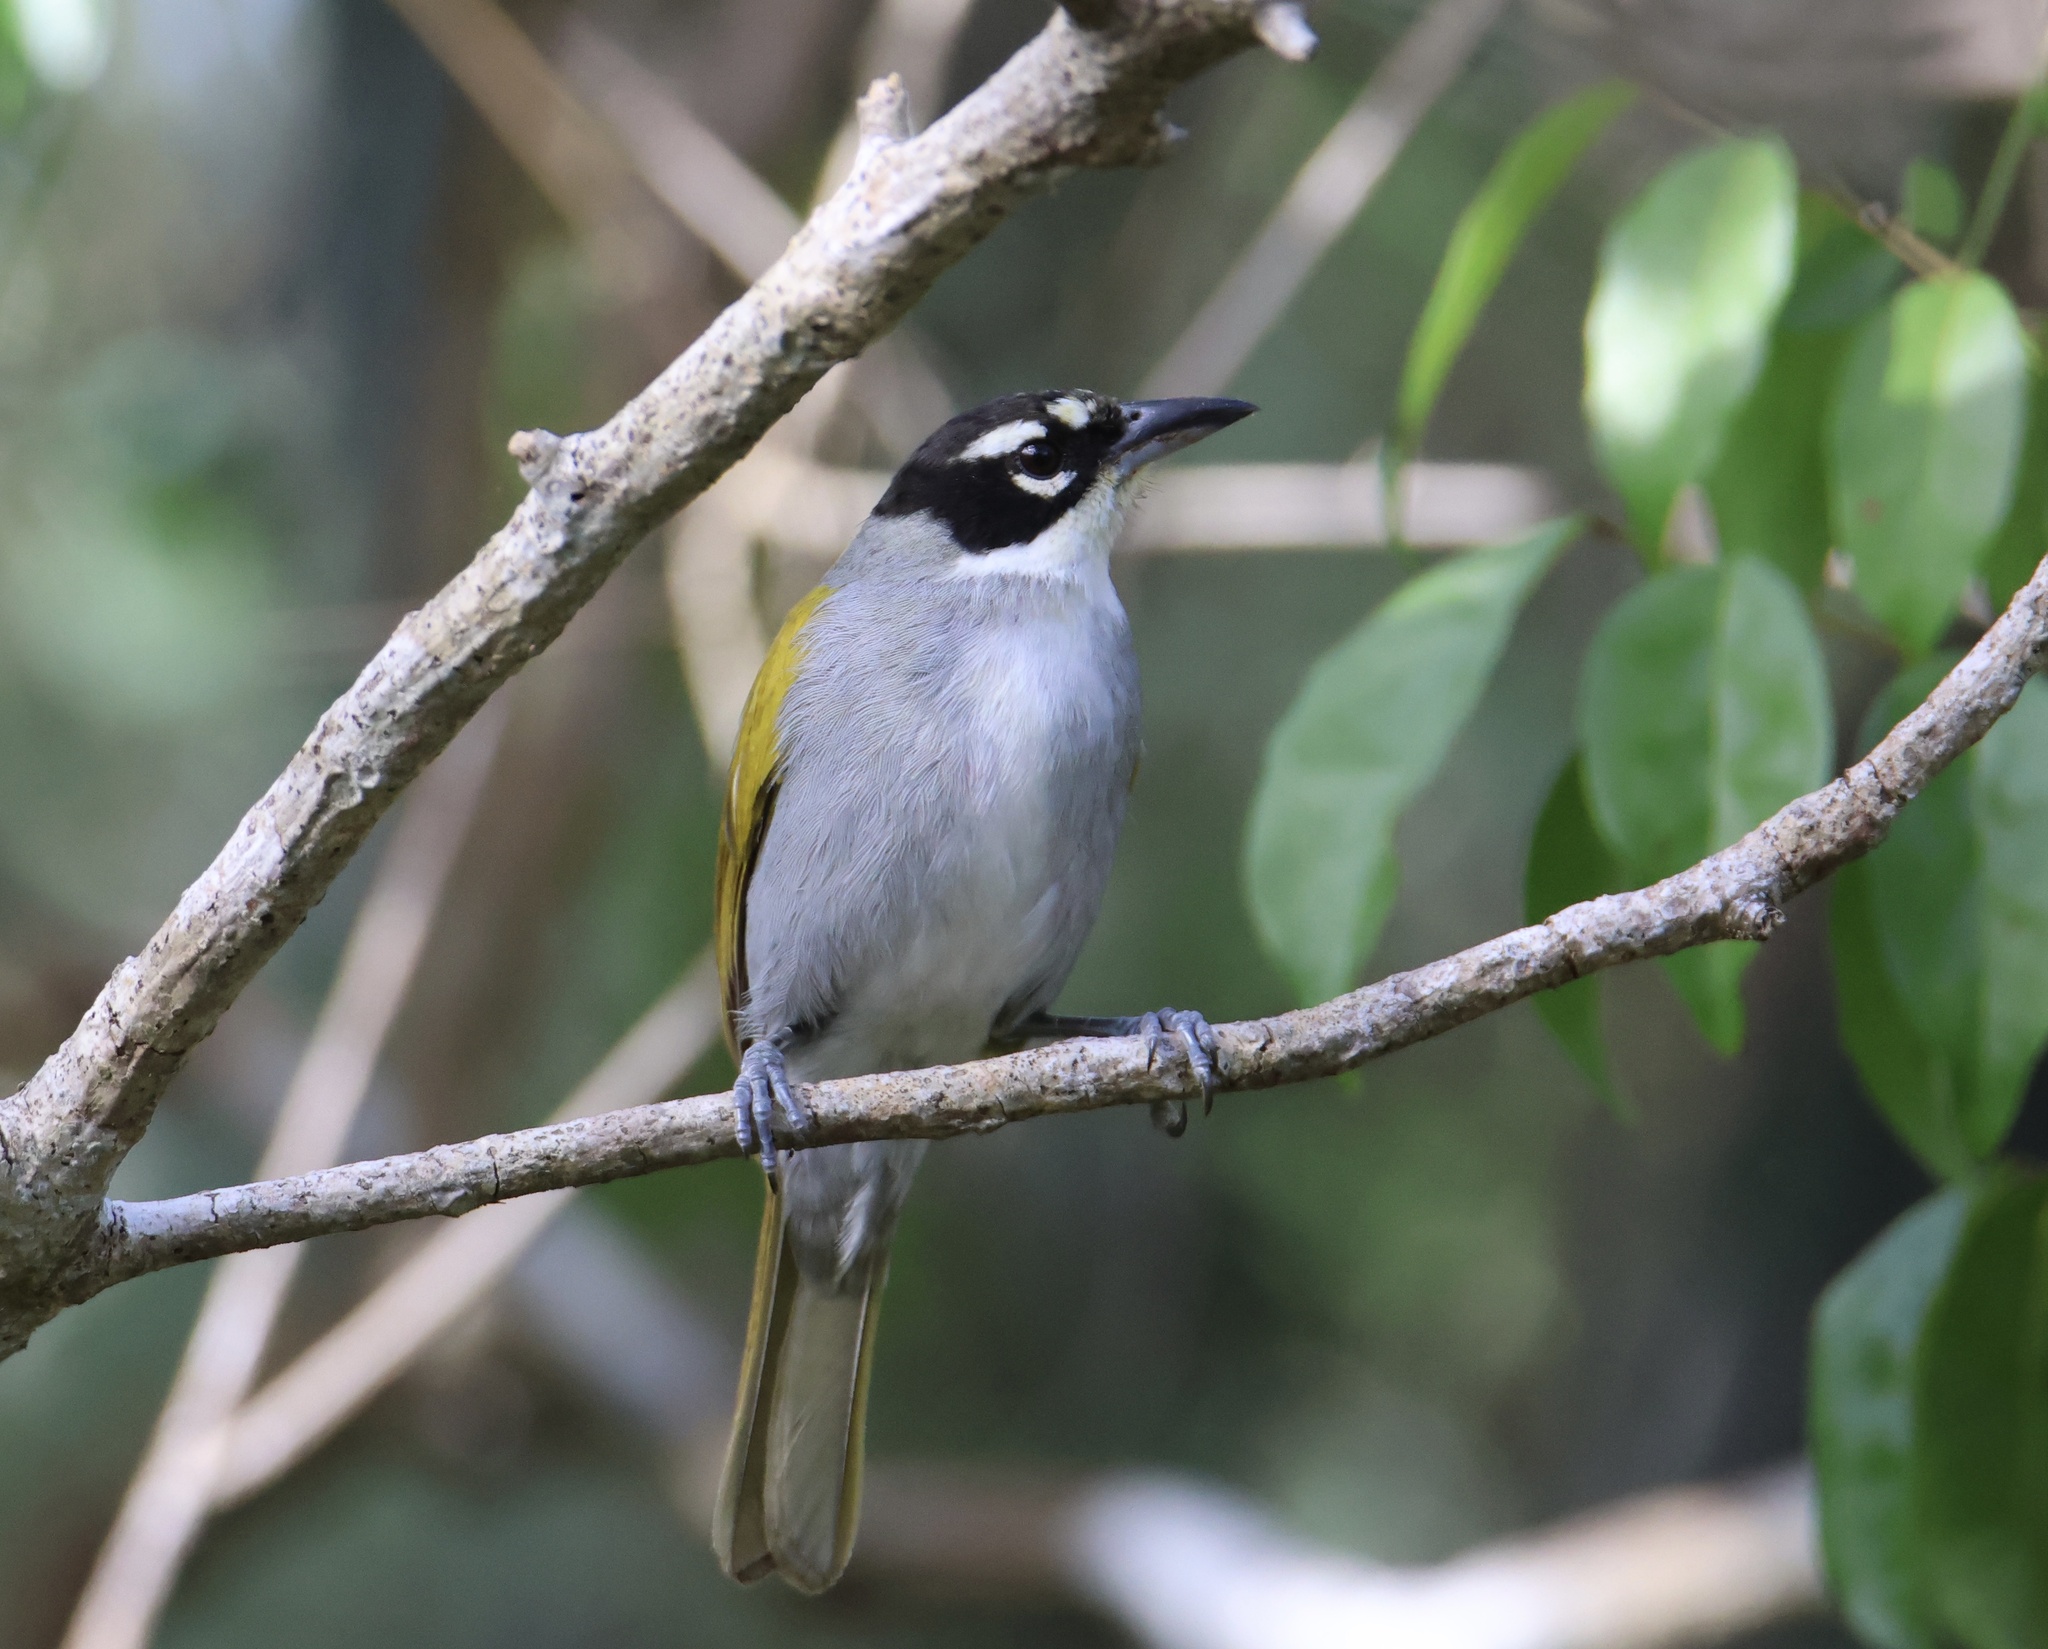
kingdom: Animalia
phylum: Chordata
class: Aves
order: Passeriformes
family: Phaenicophilidae
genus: Phaenicophilus
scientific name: Phaenicophilus palmarum
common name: Black-crowned palm-tanager
